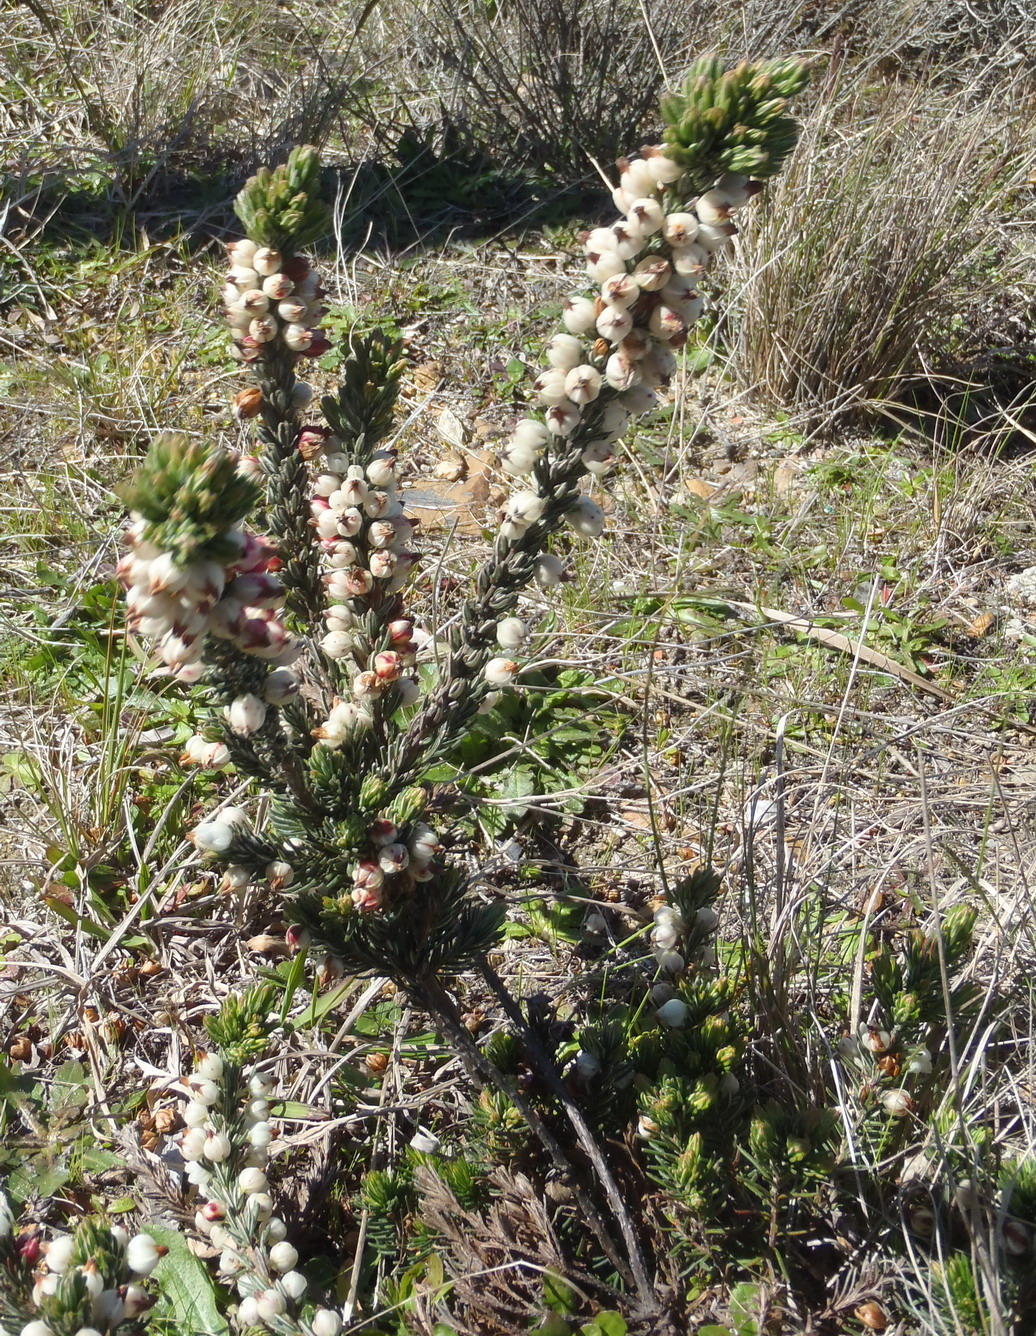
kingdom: Plantae
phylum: Tracheophyta
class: Magnoliopsida
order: Ericales
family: Ericaceae
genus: Erica
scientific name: Erica grisbrookii
